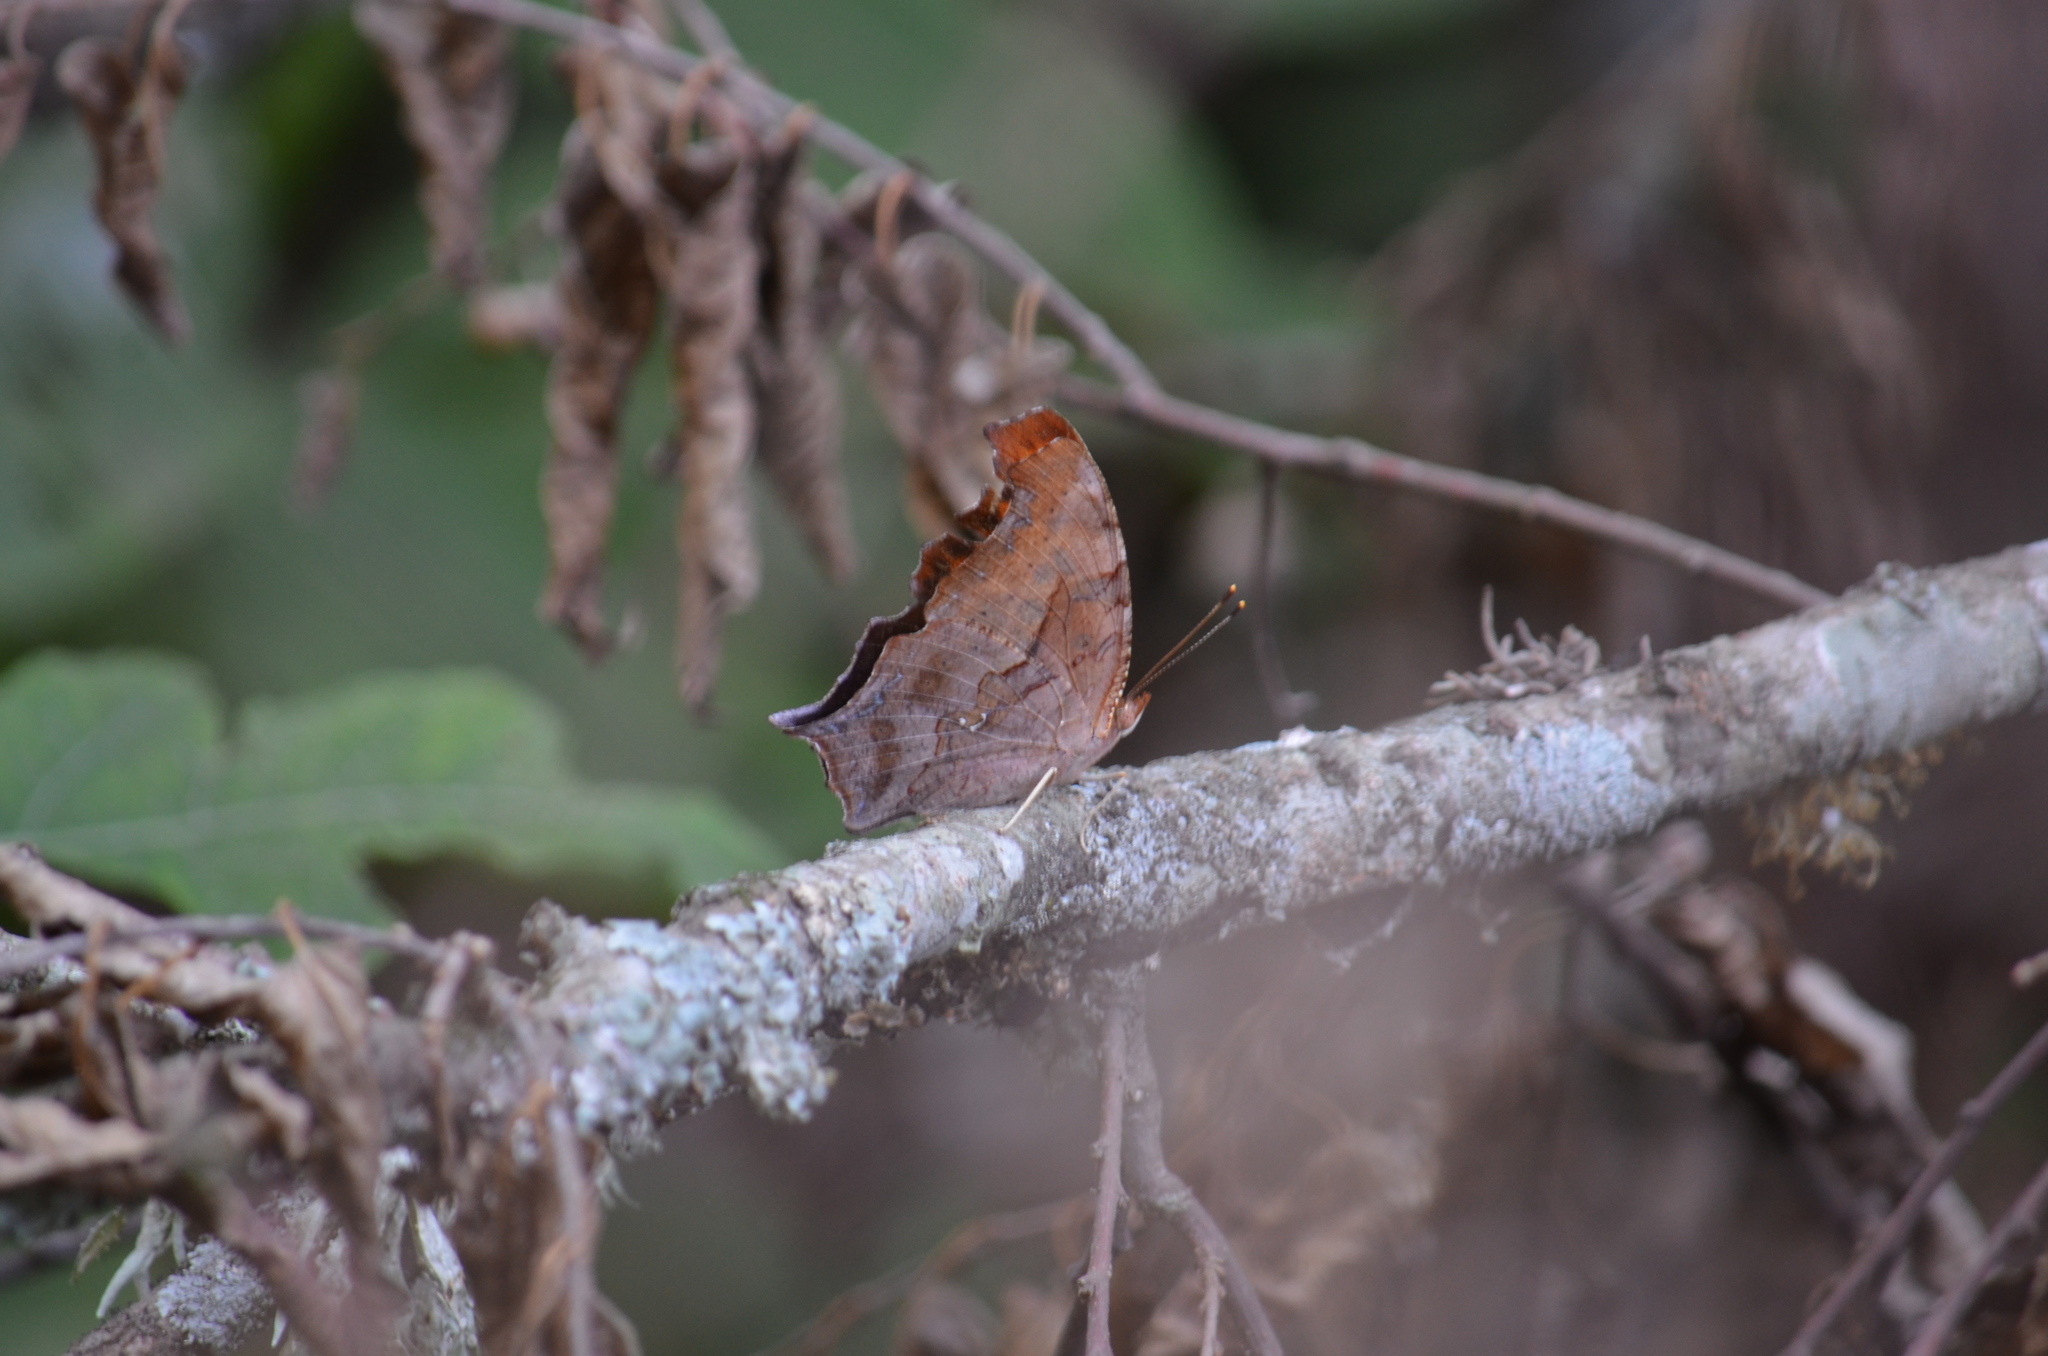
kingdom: Animalia
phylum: Arthropoda
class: Insecta
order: Lepidoptera
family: Nymphalidae
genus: Polygonia
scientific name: Polygonia interrogationis
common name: Question mark
